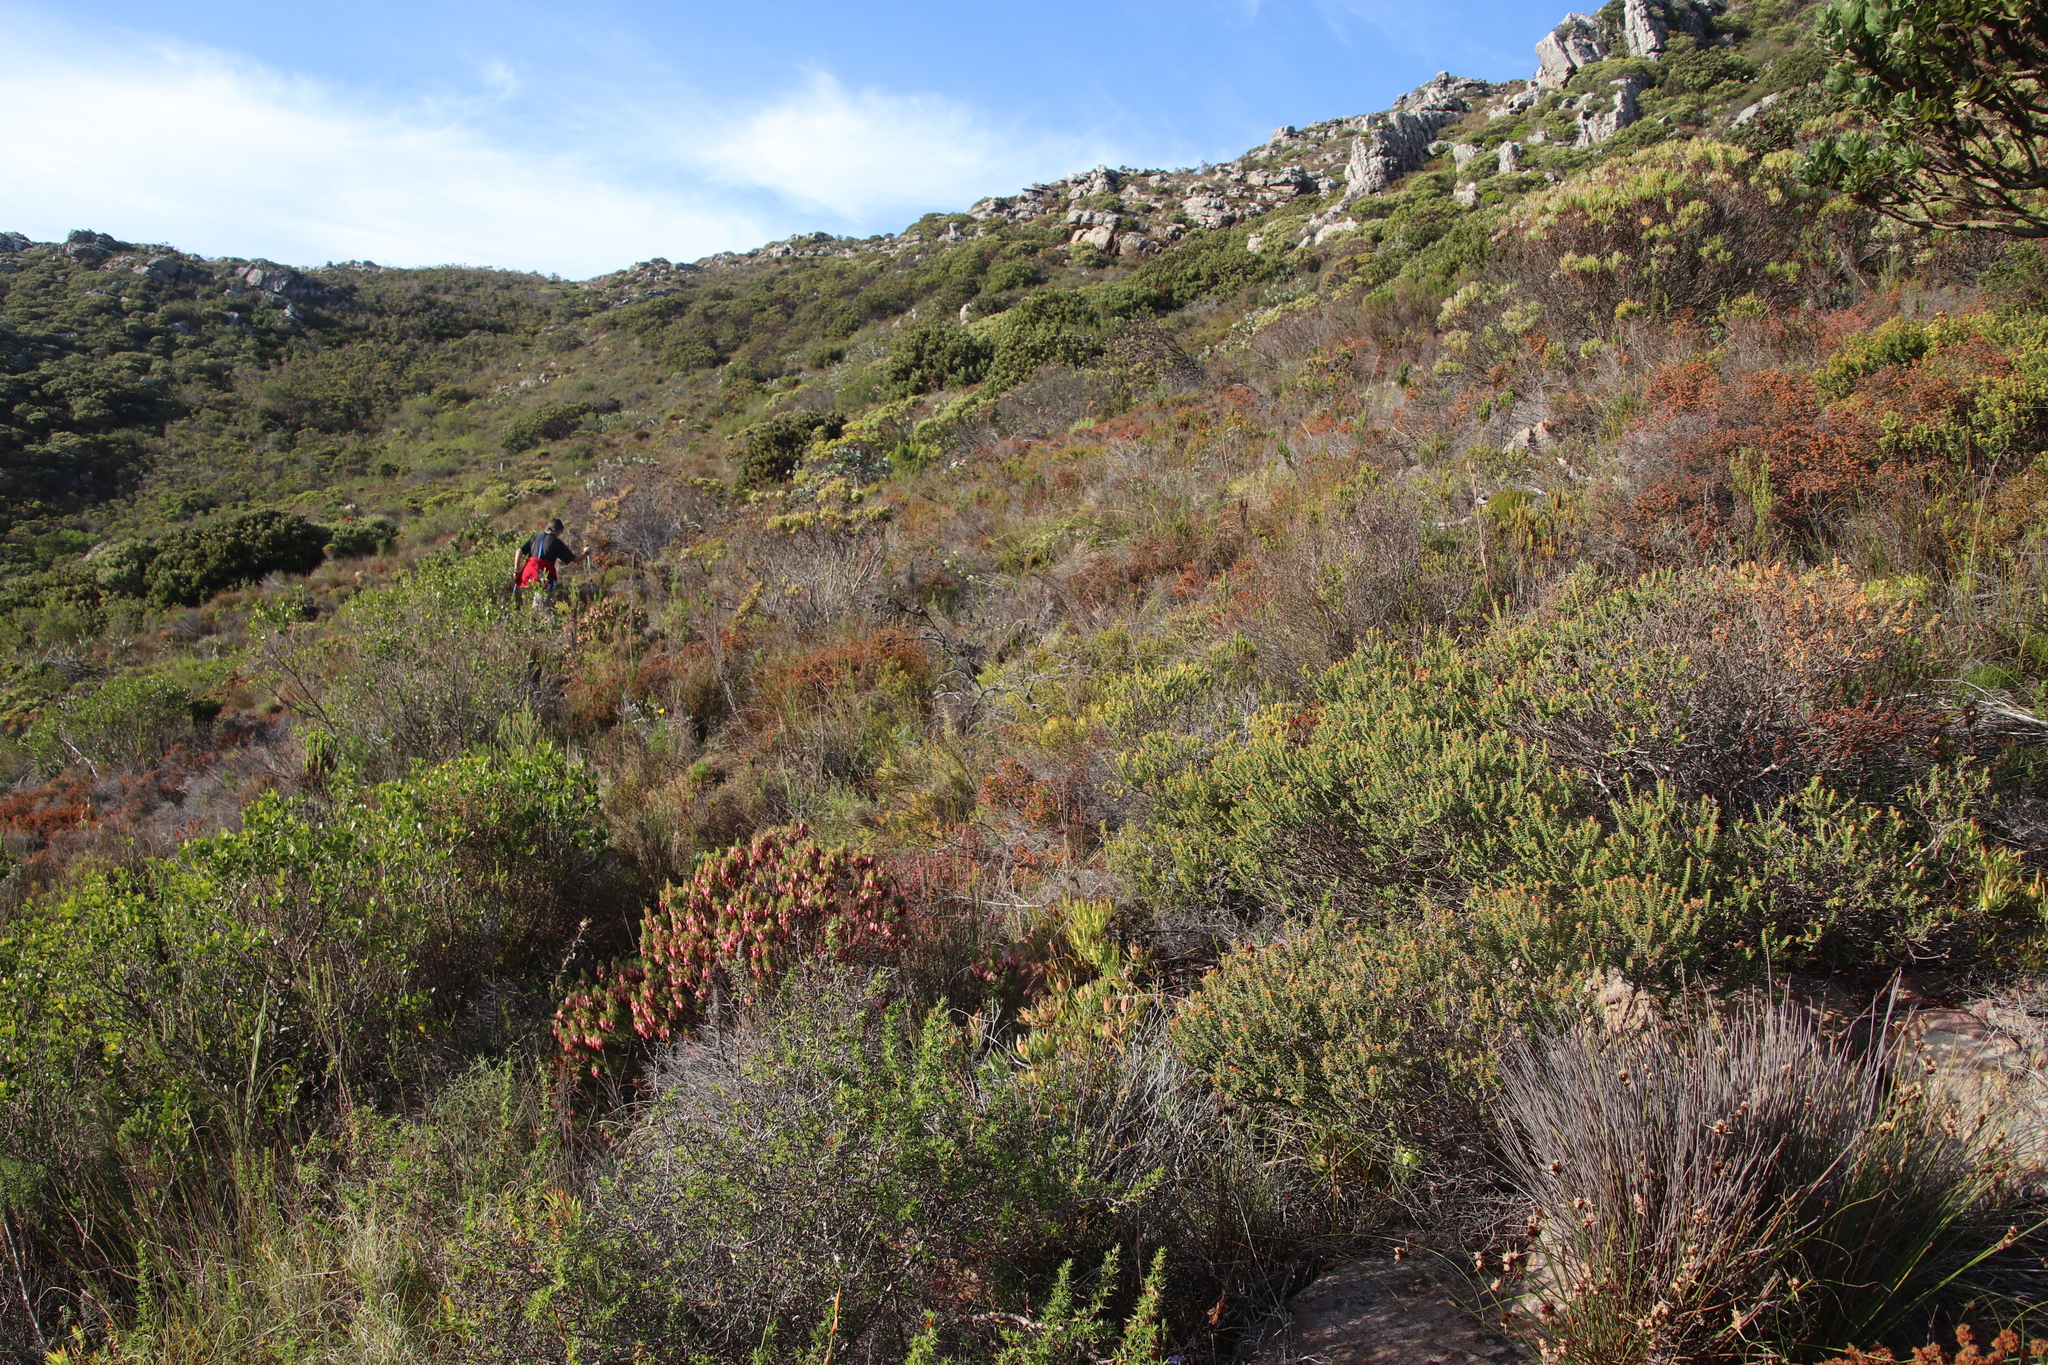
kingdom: Plantae
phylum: Tracheophyta
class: Magnoliopsida
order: Ericales
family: Ericaceae
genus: Erica
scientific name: Erica ericoides
